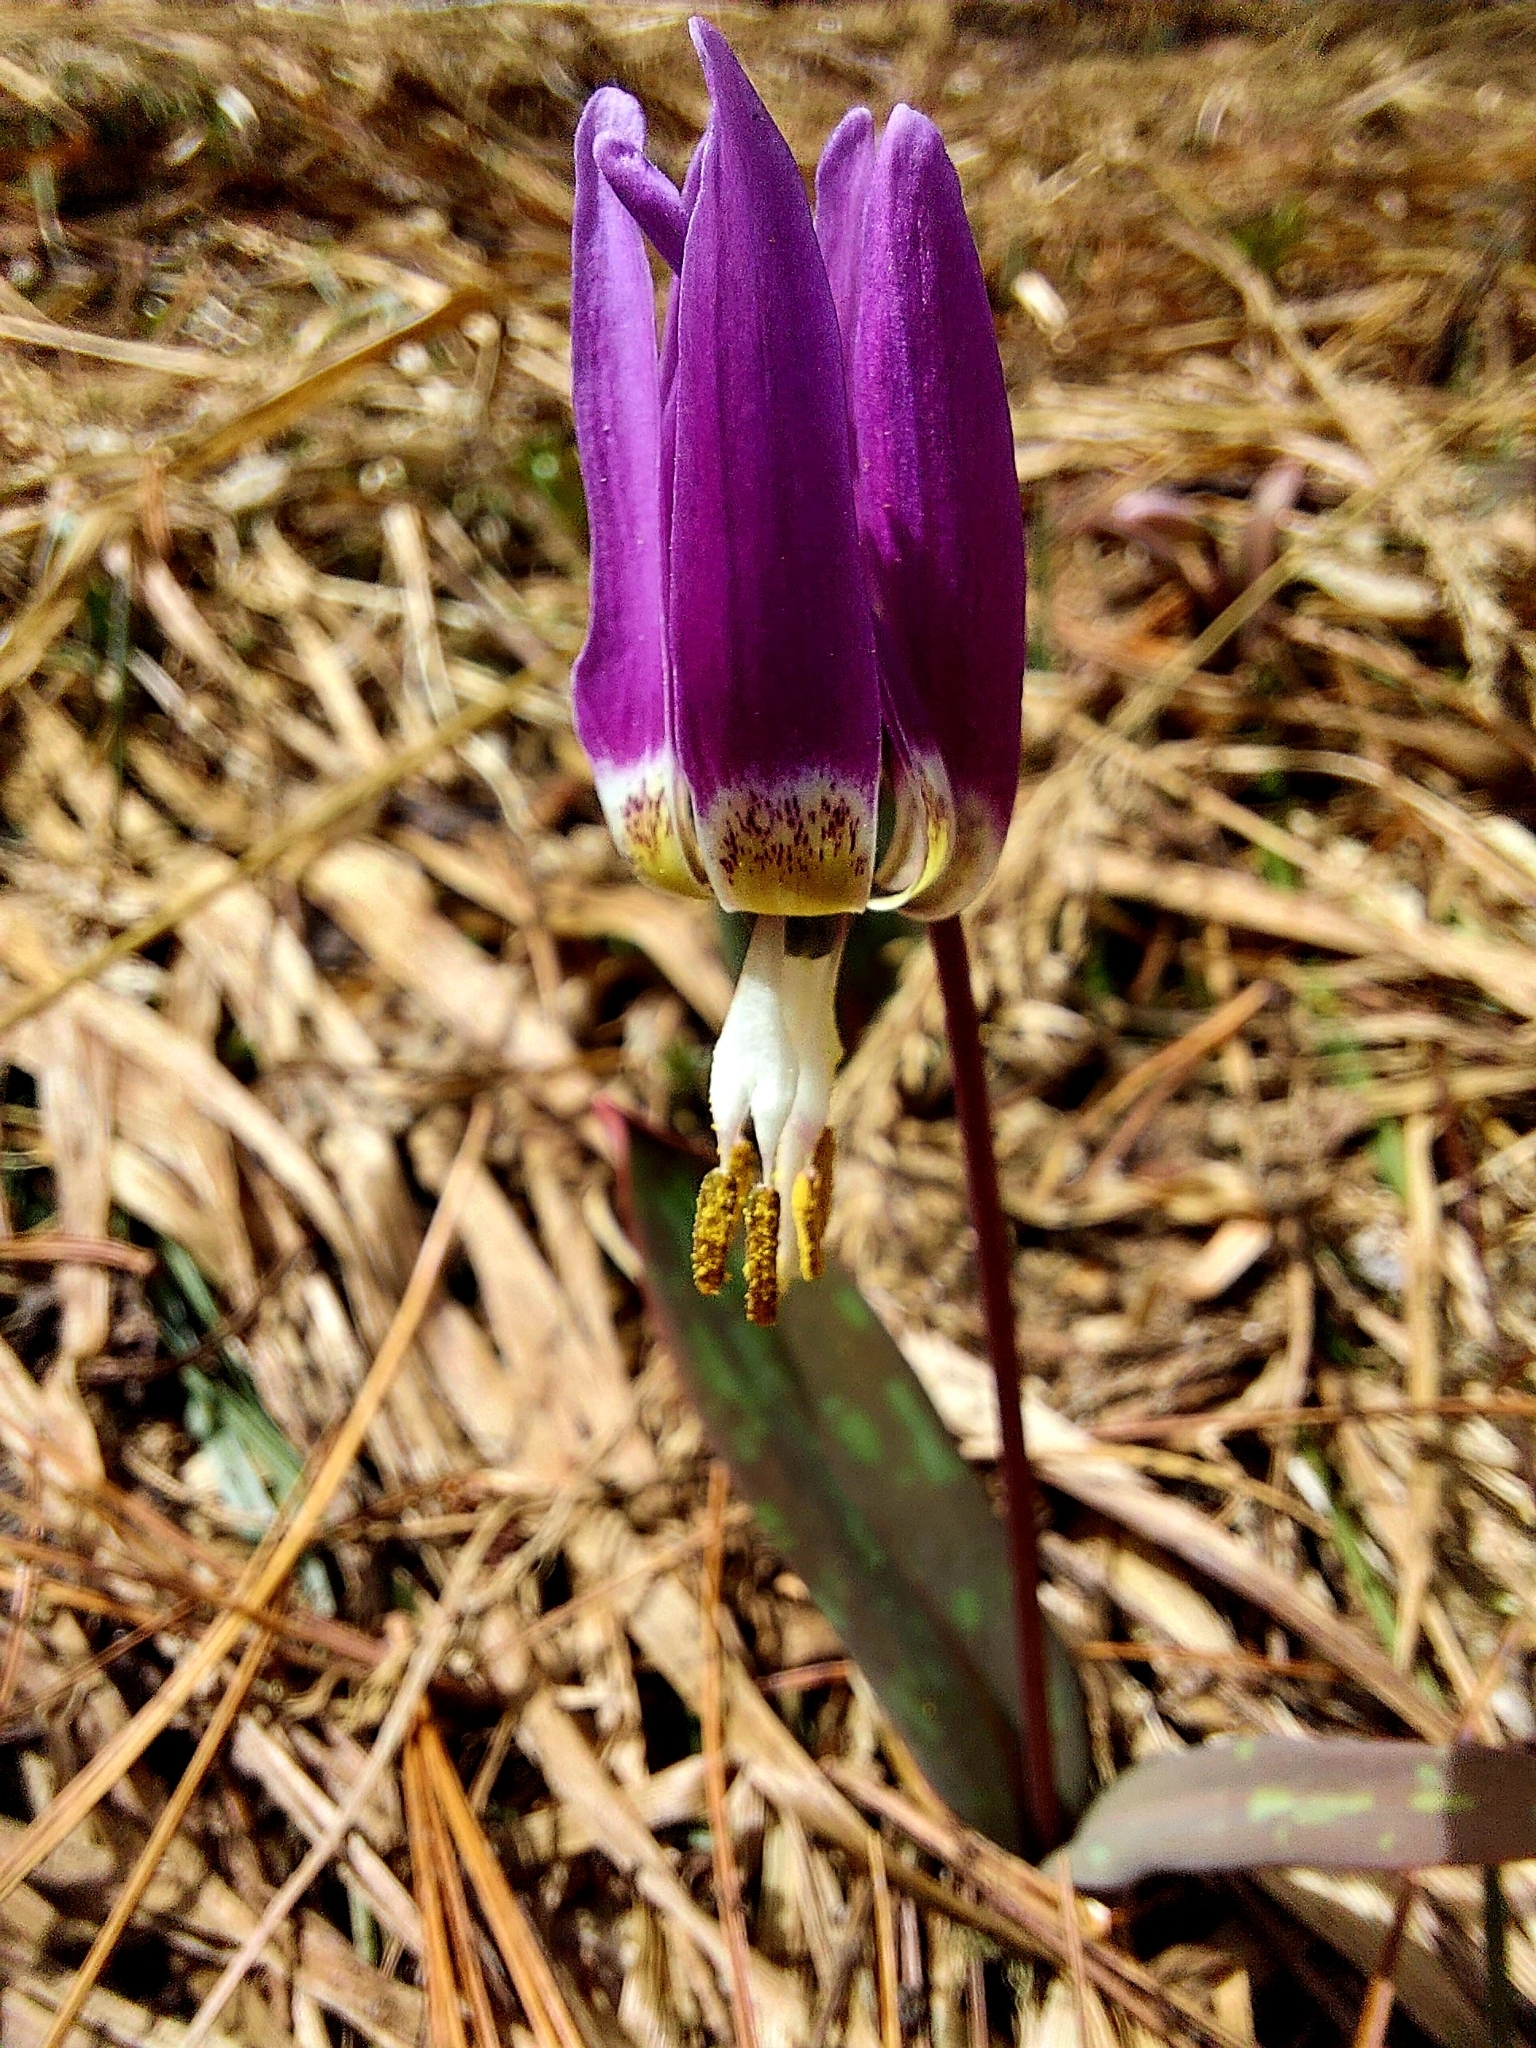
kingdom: Plantae
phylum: Tracheophyta
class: Liliopsida
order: Liliales
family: Liliaceae
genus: Erythronium
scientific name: Erythronium sibiricum
